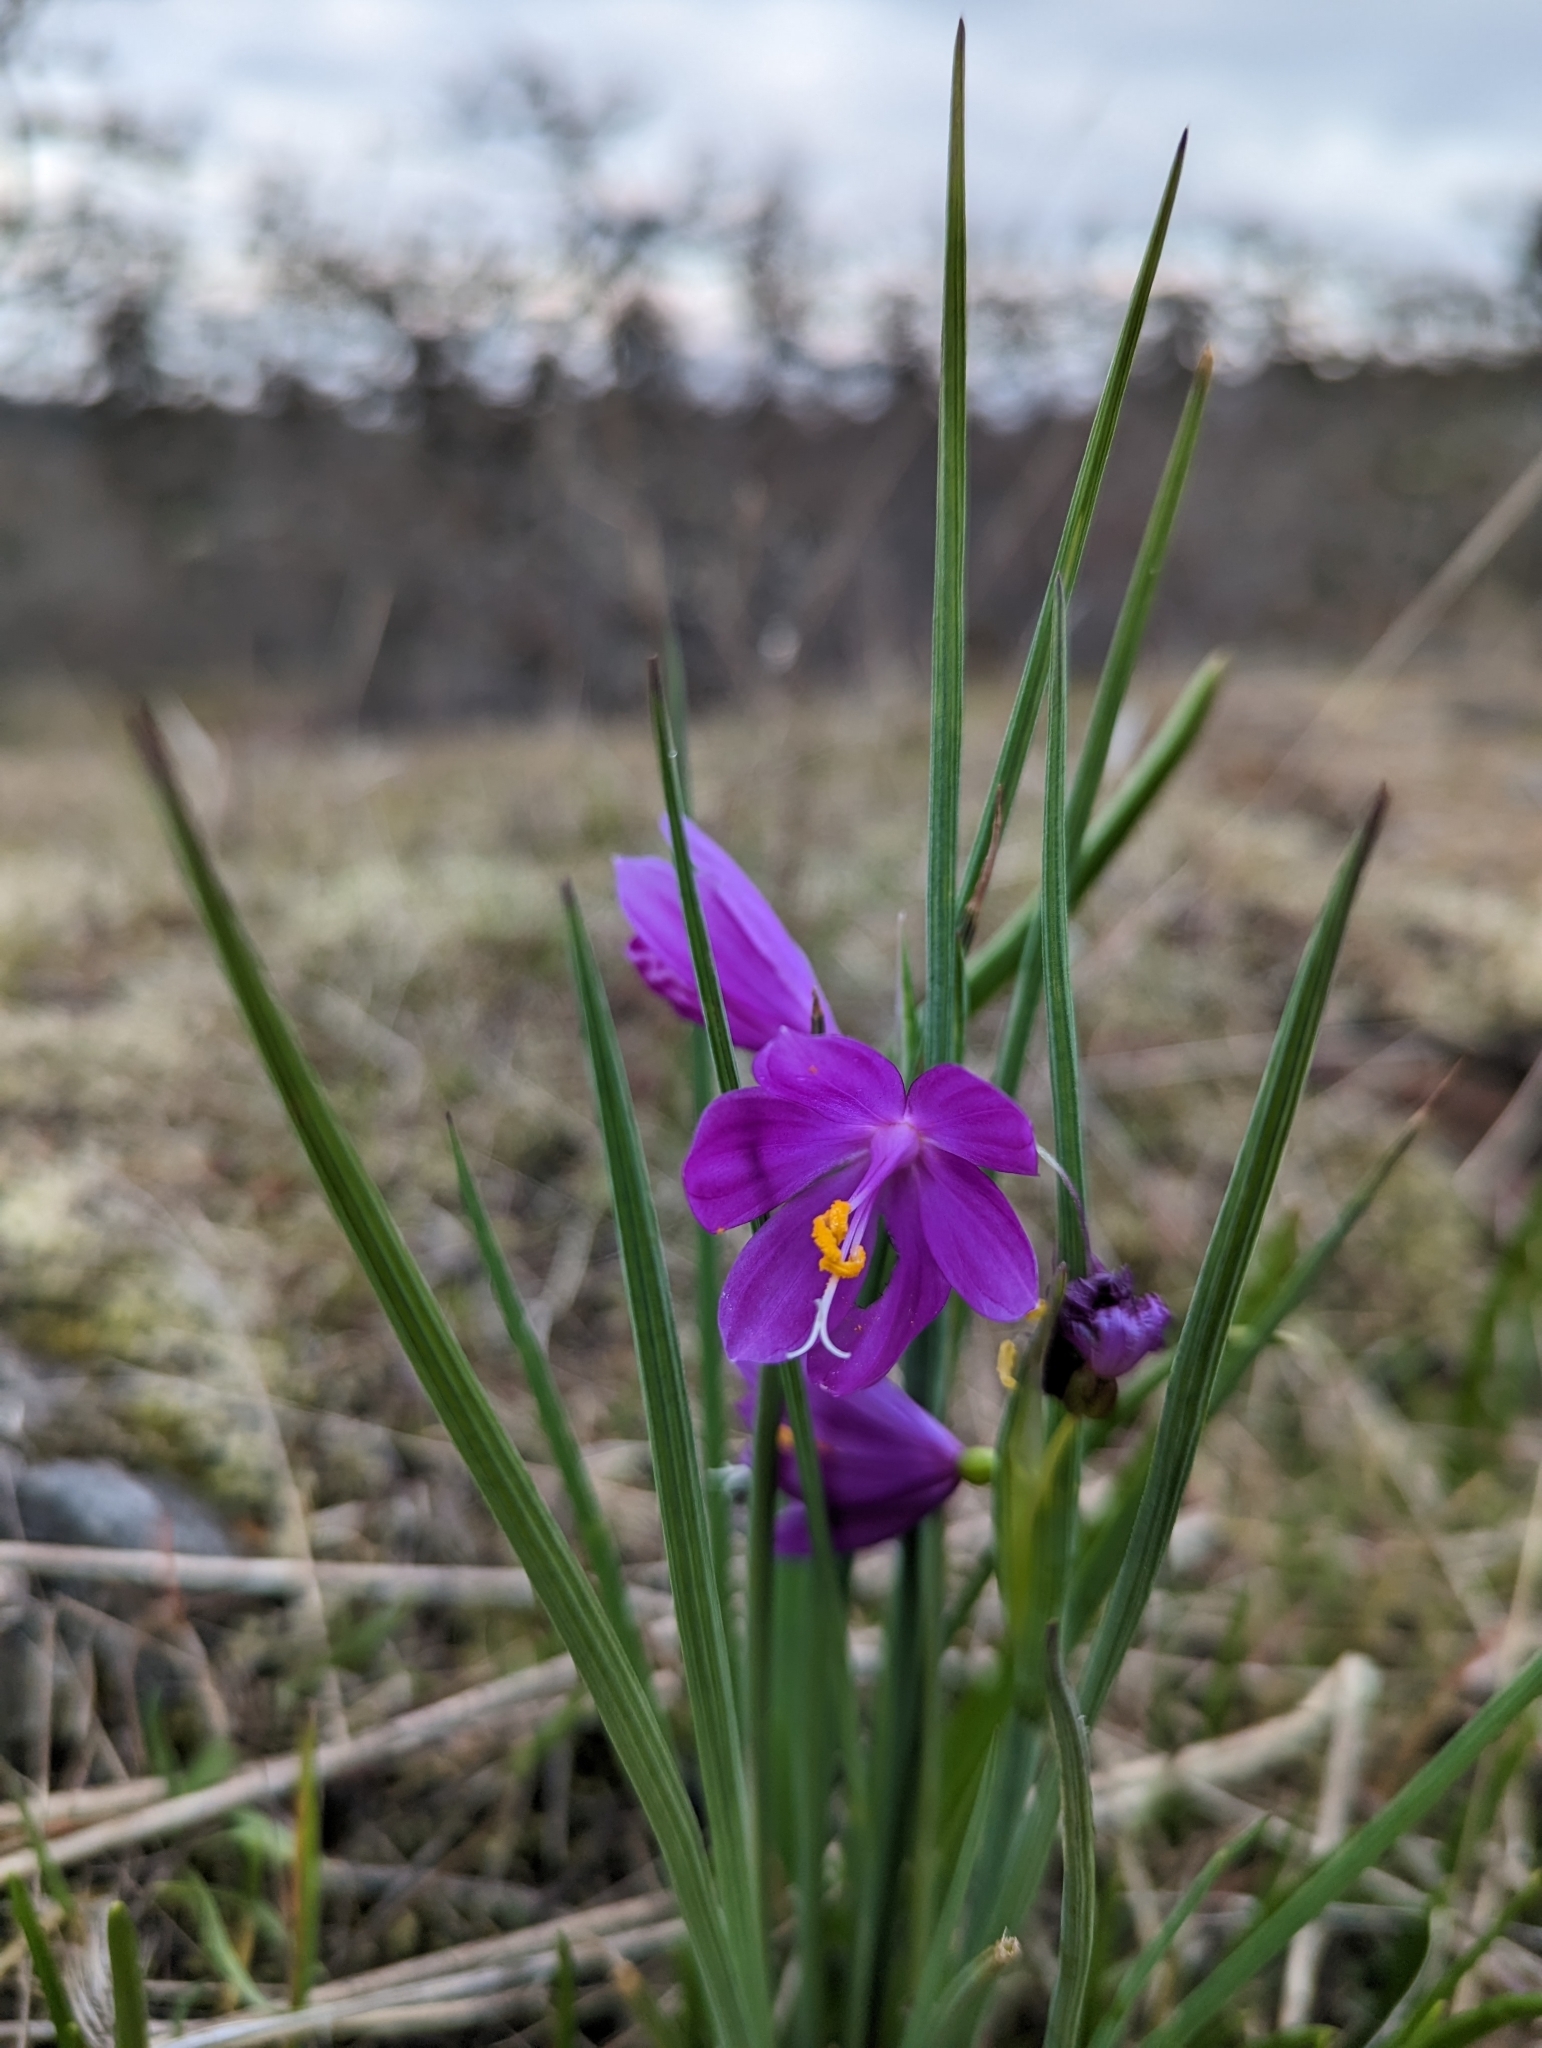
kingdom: Plantae
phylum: Tracheophyta
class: Liliopsida
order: Asparagales
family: Iridaceae
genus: Olsynium
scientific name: Olsynium douglasii
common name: Douglas' grasswidow
